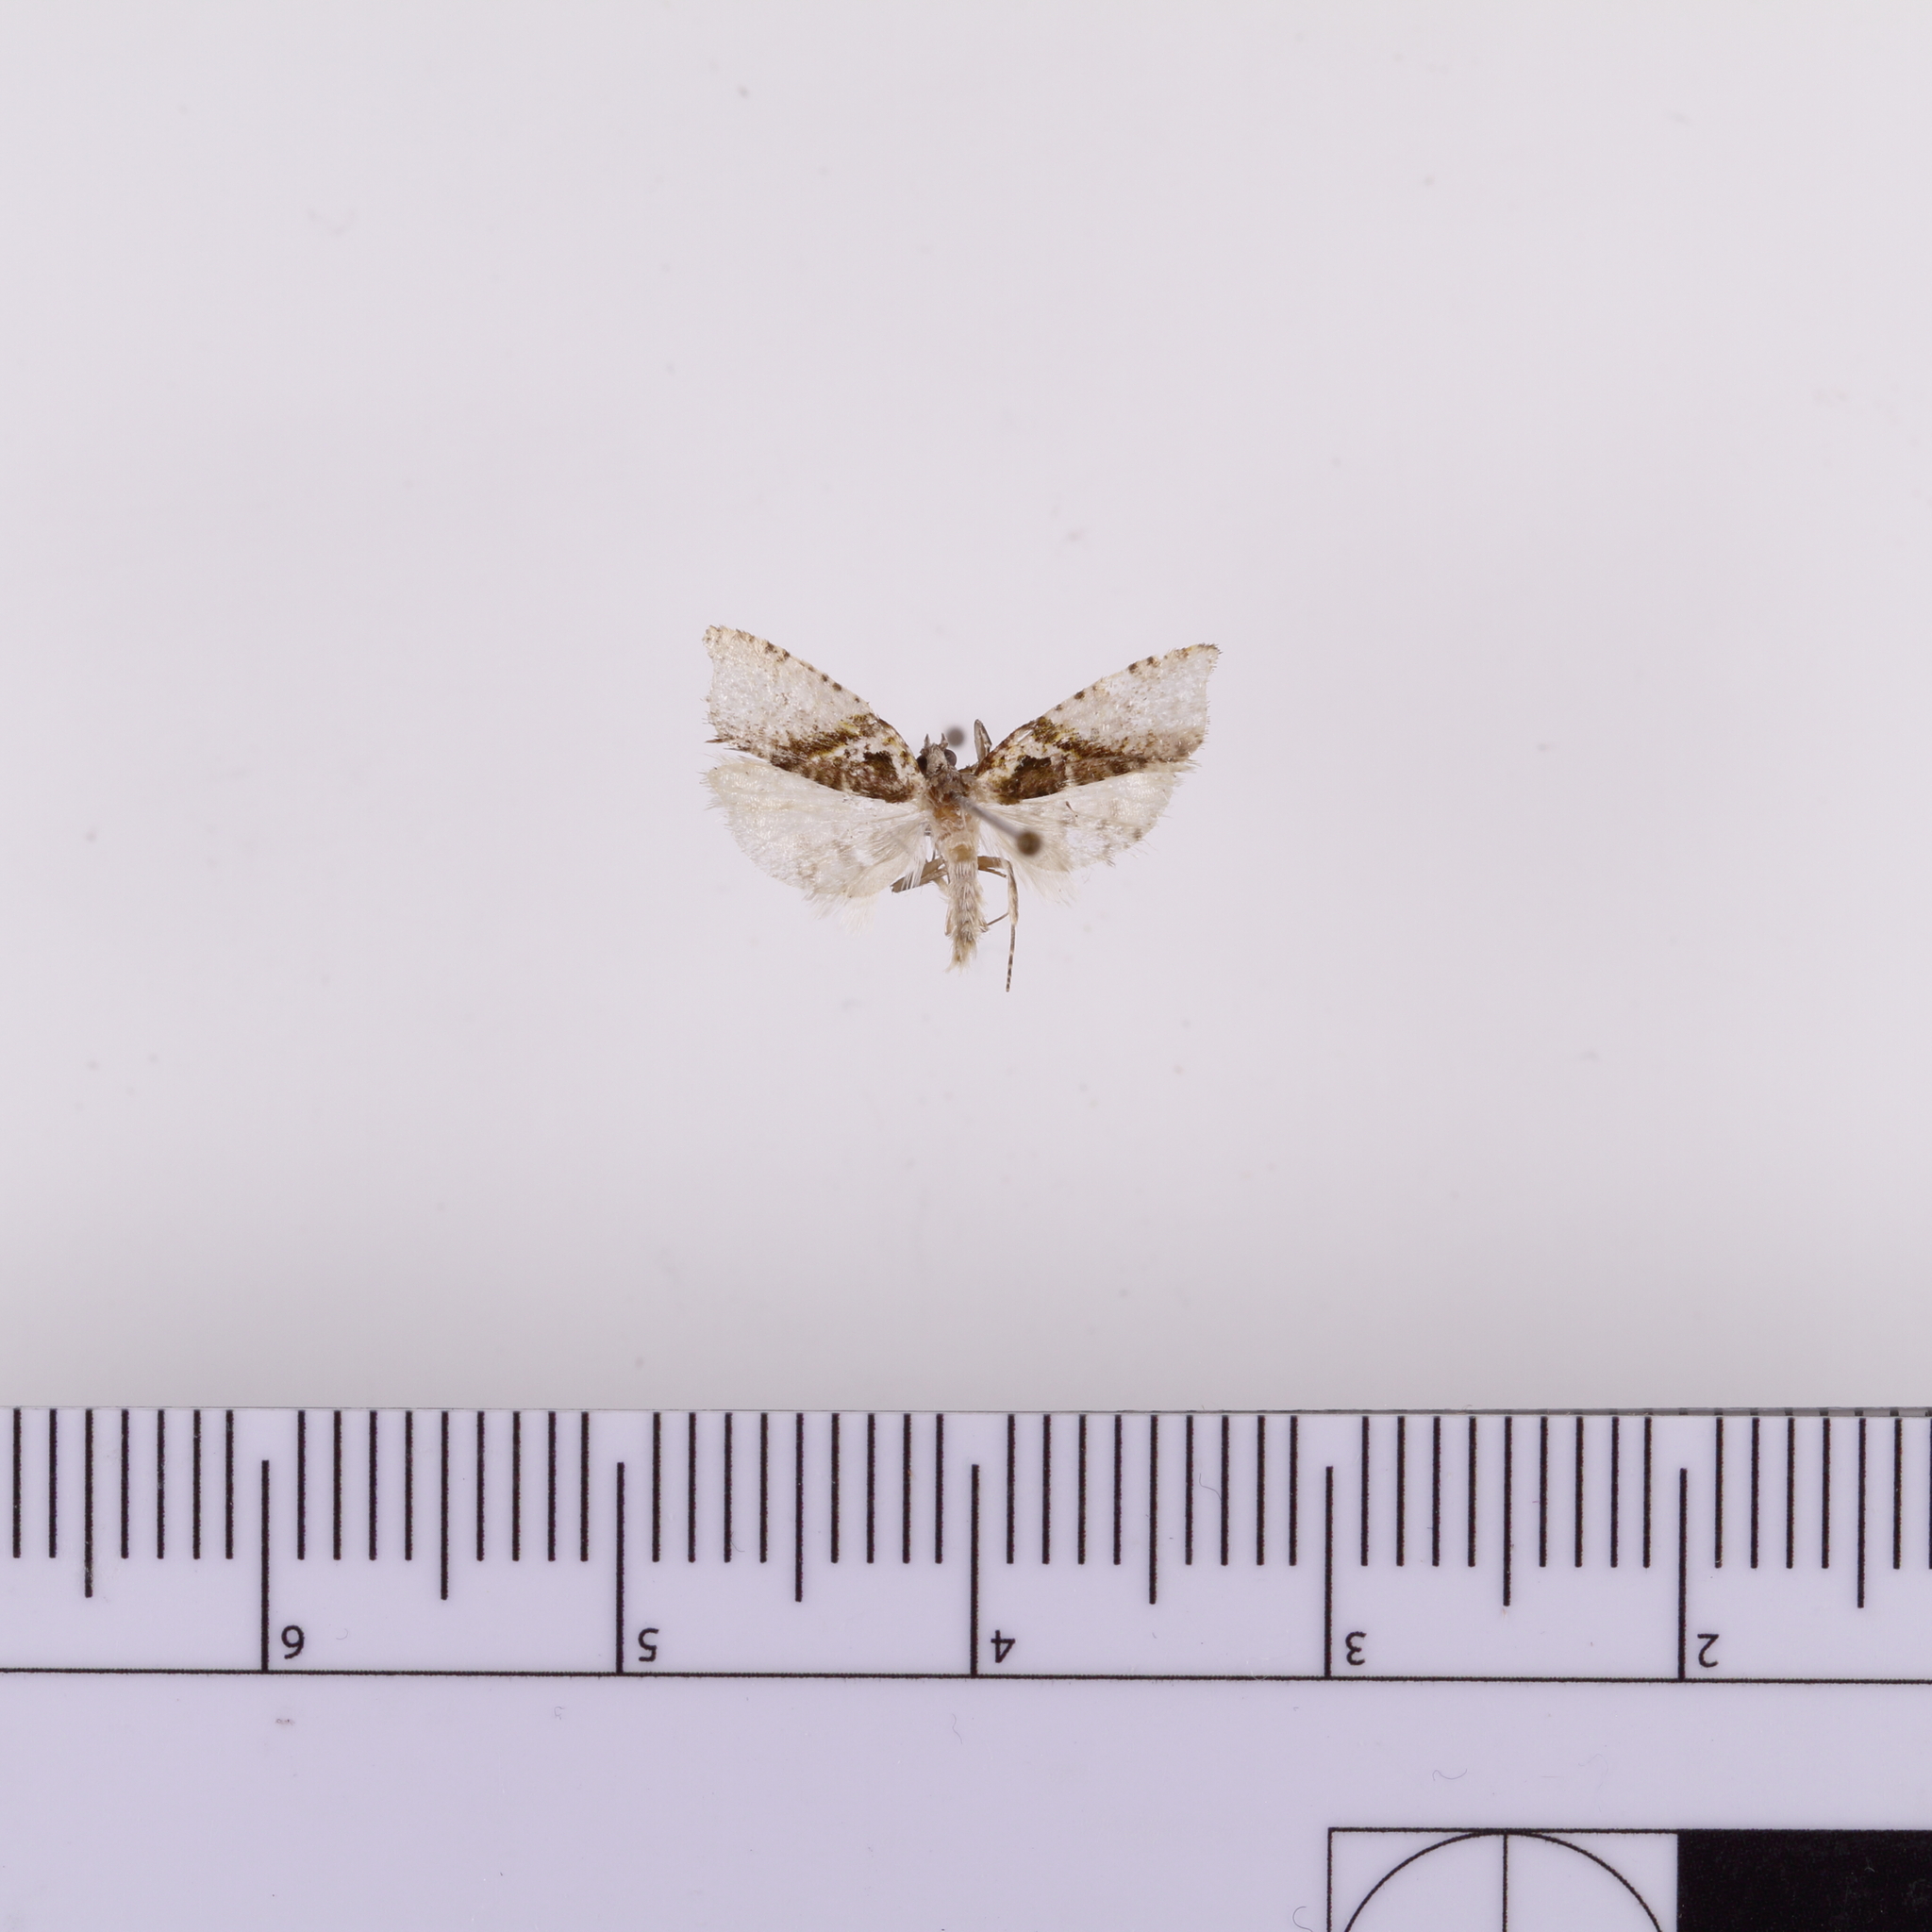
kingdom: Animalia
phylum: Arthropoda
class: Insecta
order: Lepidoptera
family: Tortricidae
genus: Pyrgotis
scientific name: Pyrgotis plagiatana
